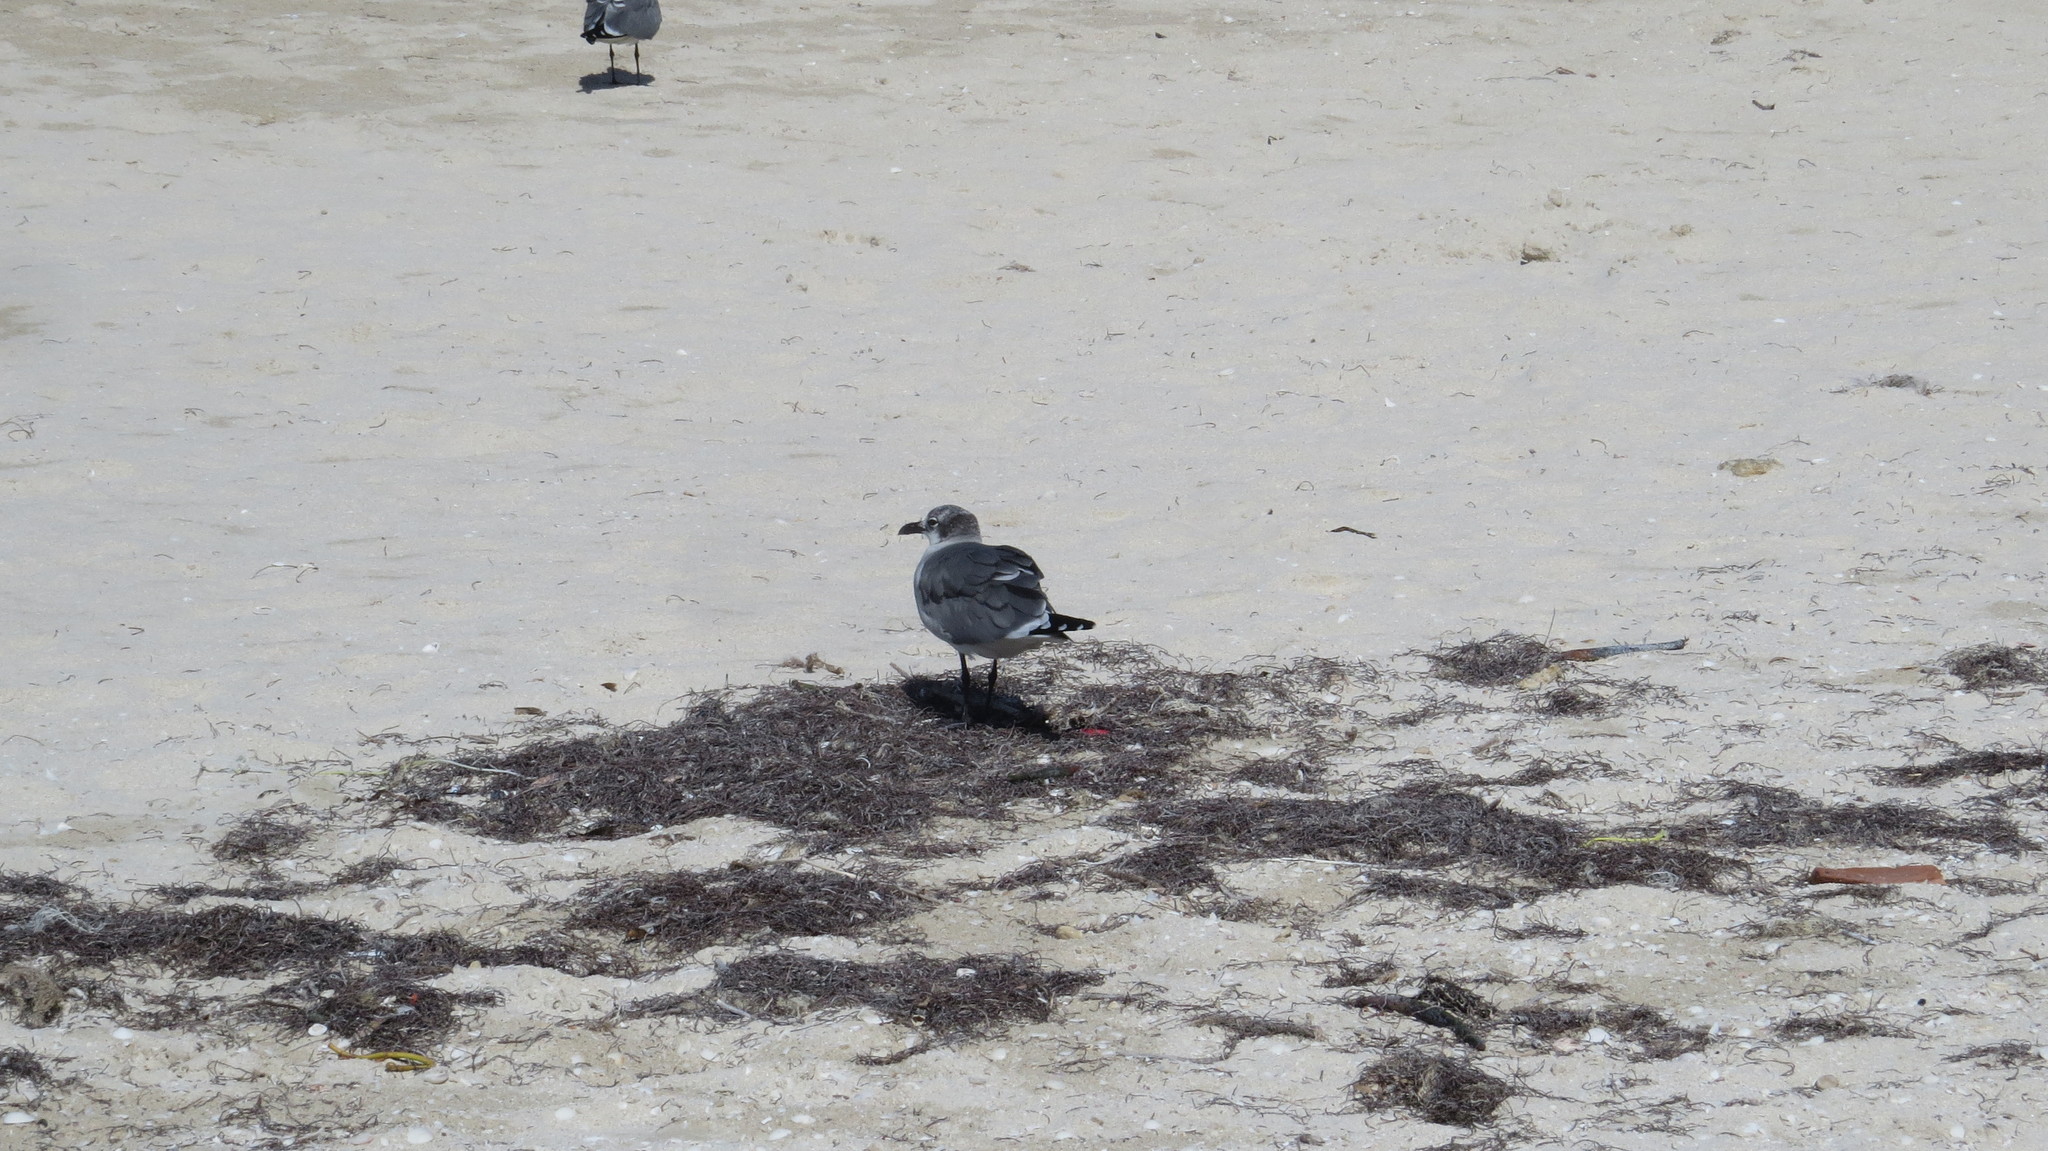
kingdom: Animalia
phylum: Chordata
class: Aves
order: Charadriiformes
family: Laridae
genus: Leucophaeus
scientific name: Leucophaeus atricilla
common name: Laughing gull
